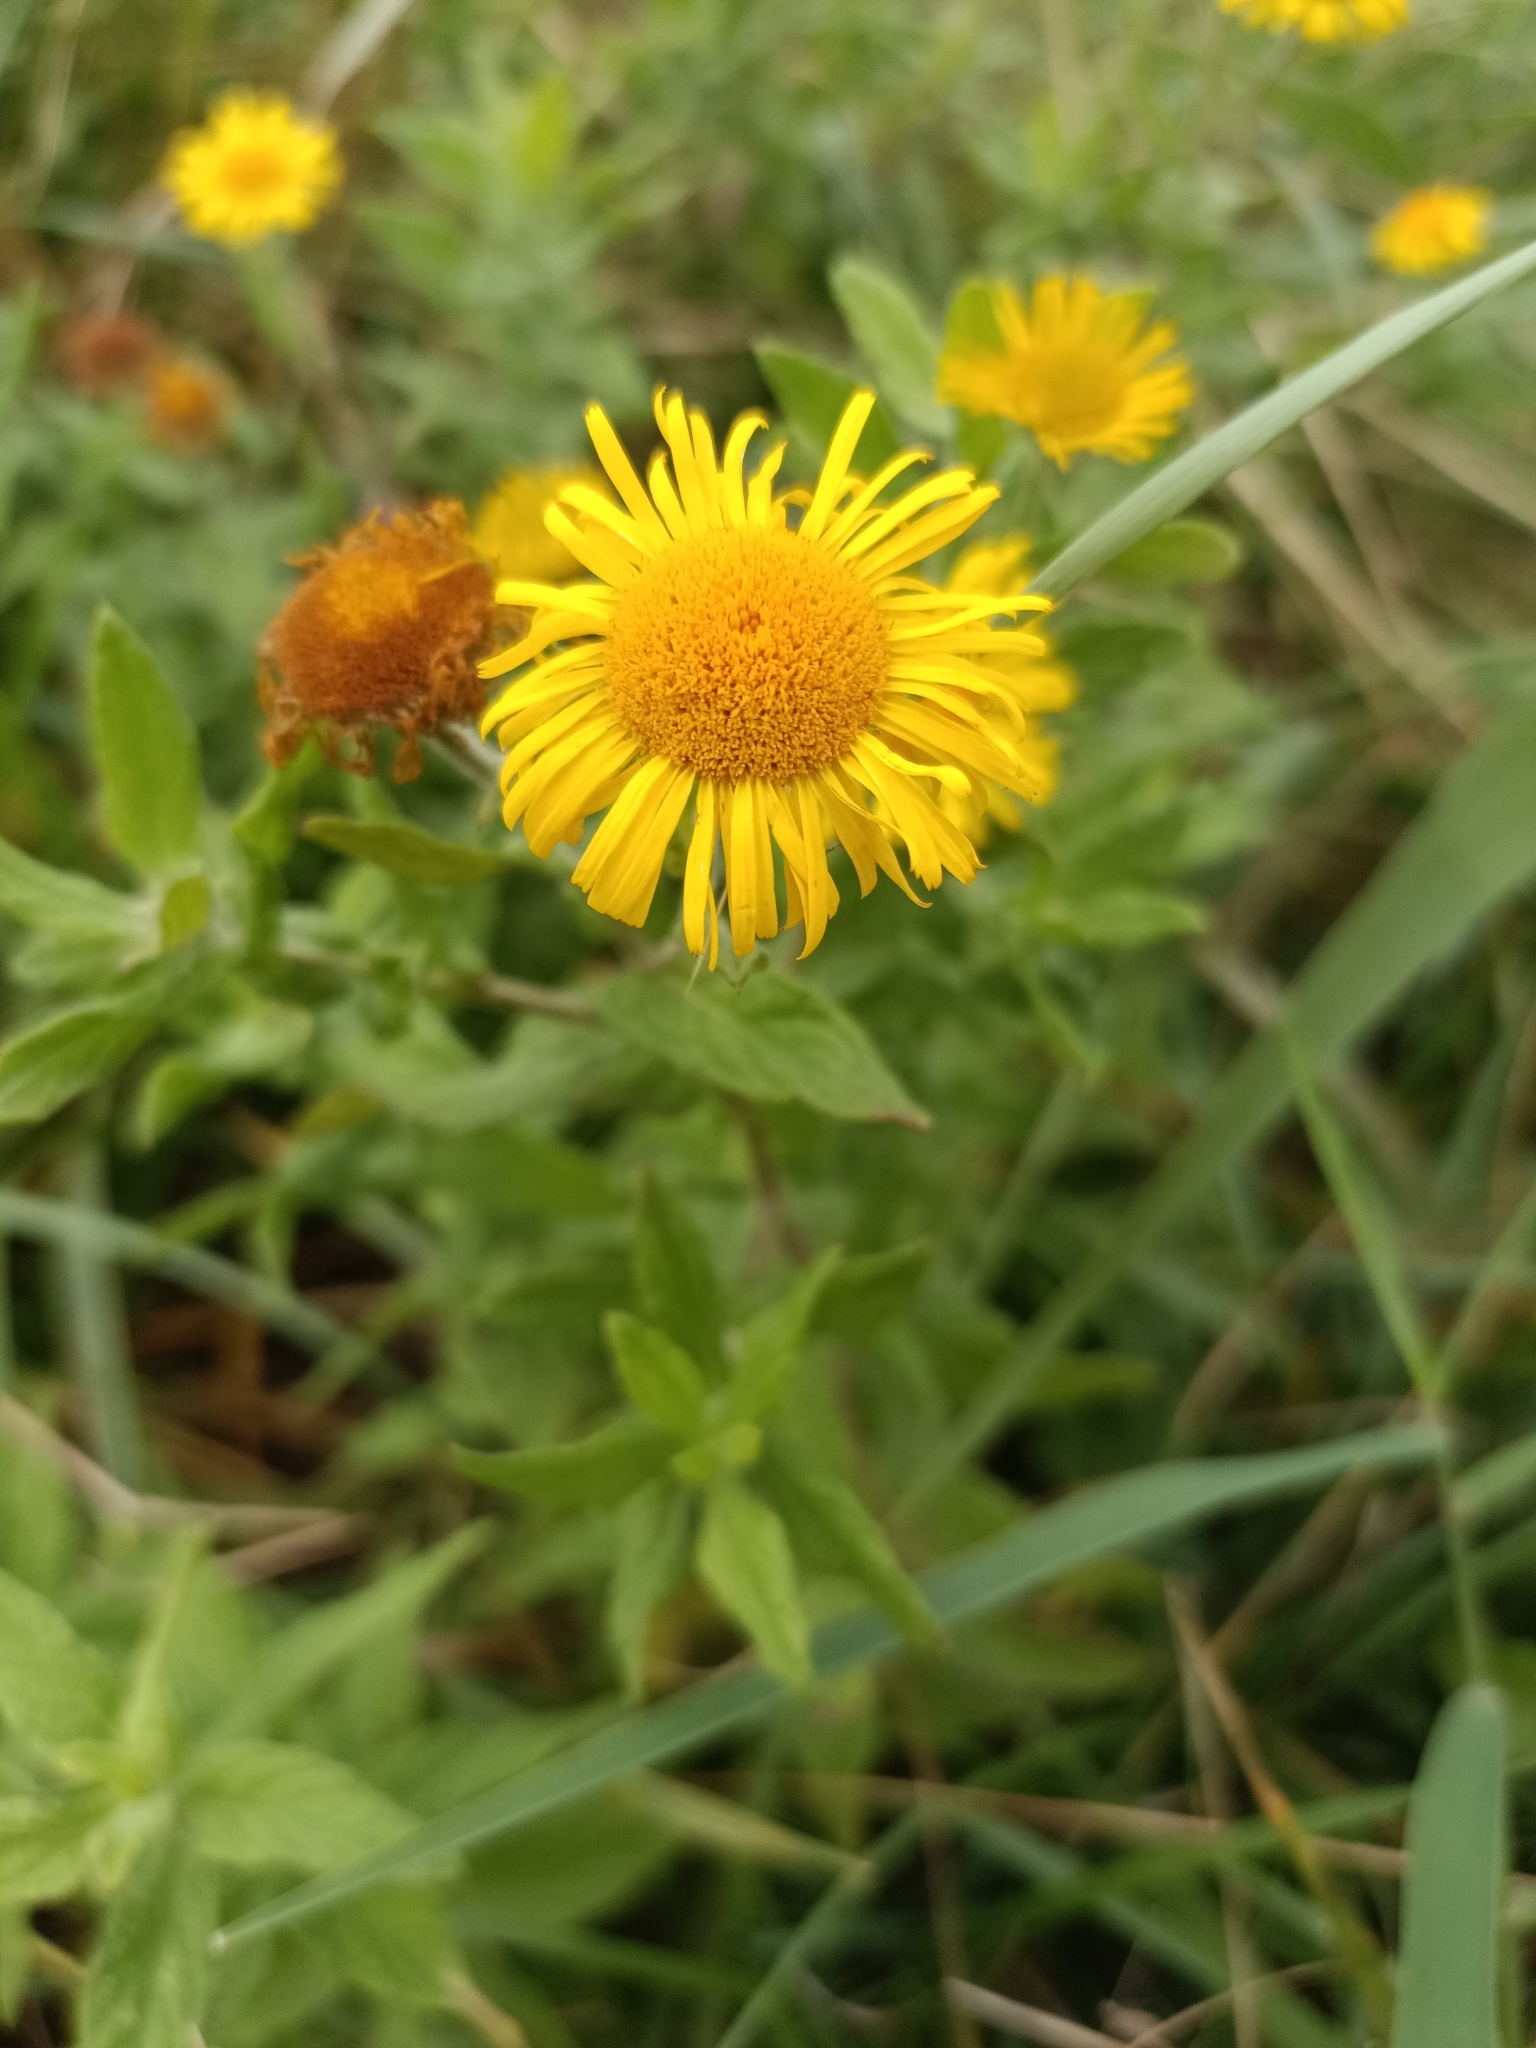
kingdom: Plantae
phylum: Tracheophyta
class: Magnoliopsida
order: Asterales
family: Asteraceae
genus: Pulicaria
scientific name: Pulicaria dysenterica
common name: Common fleabane
